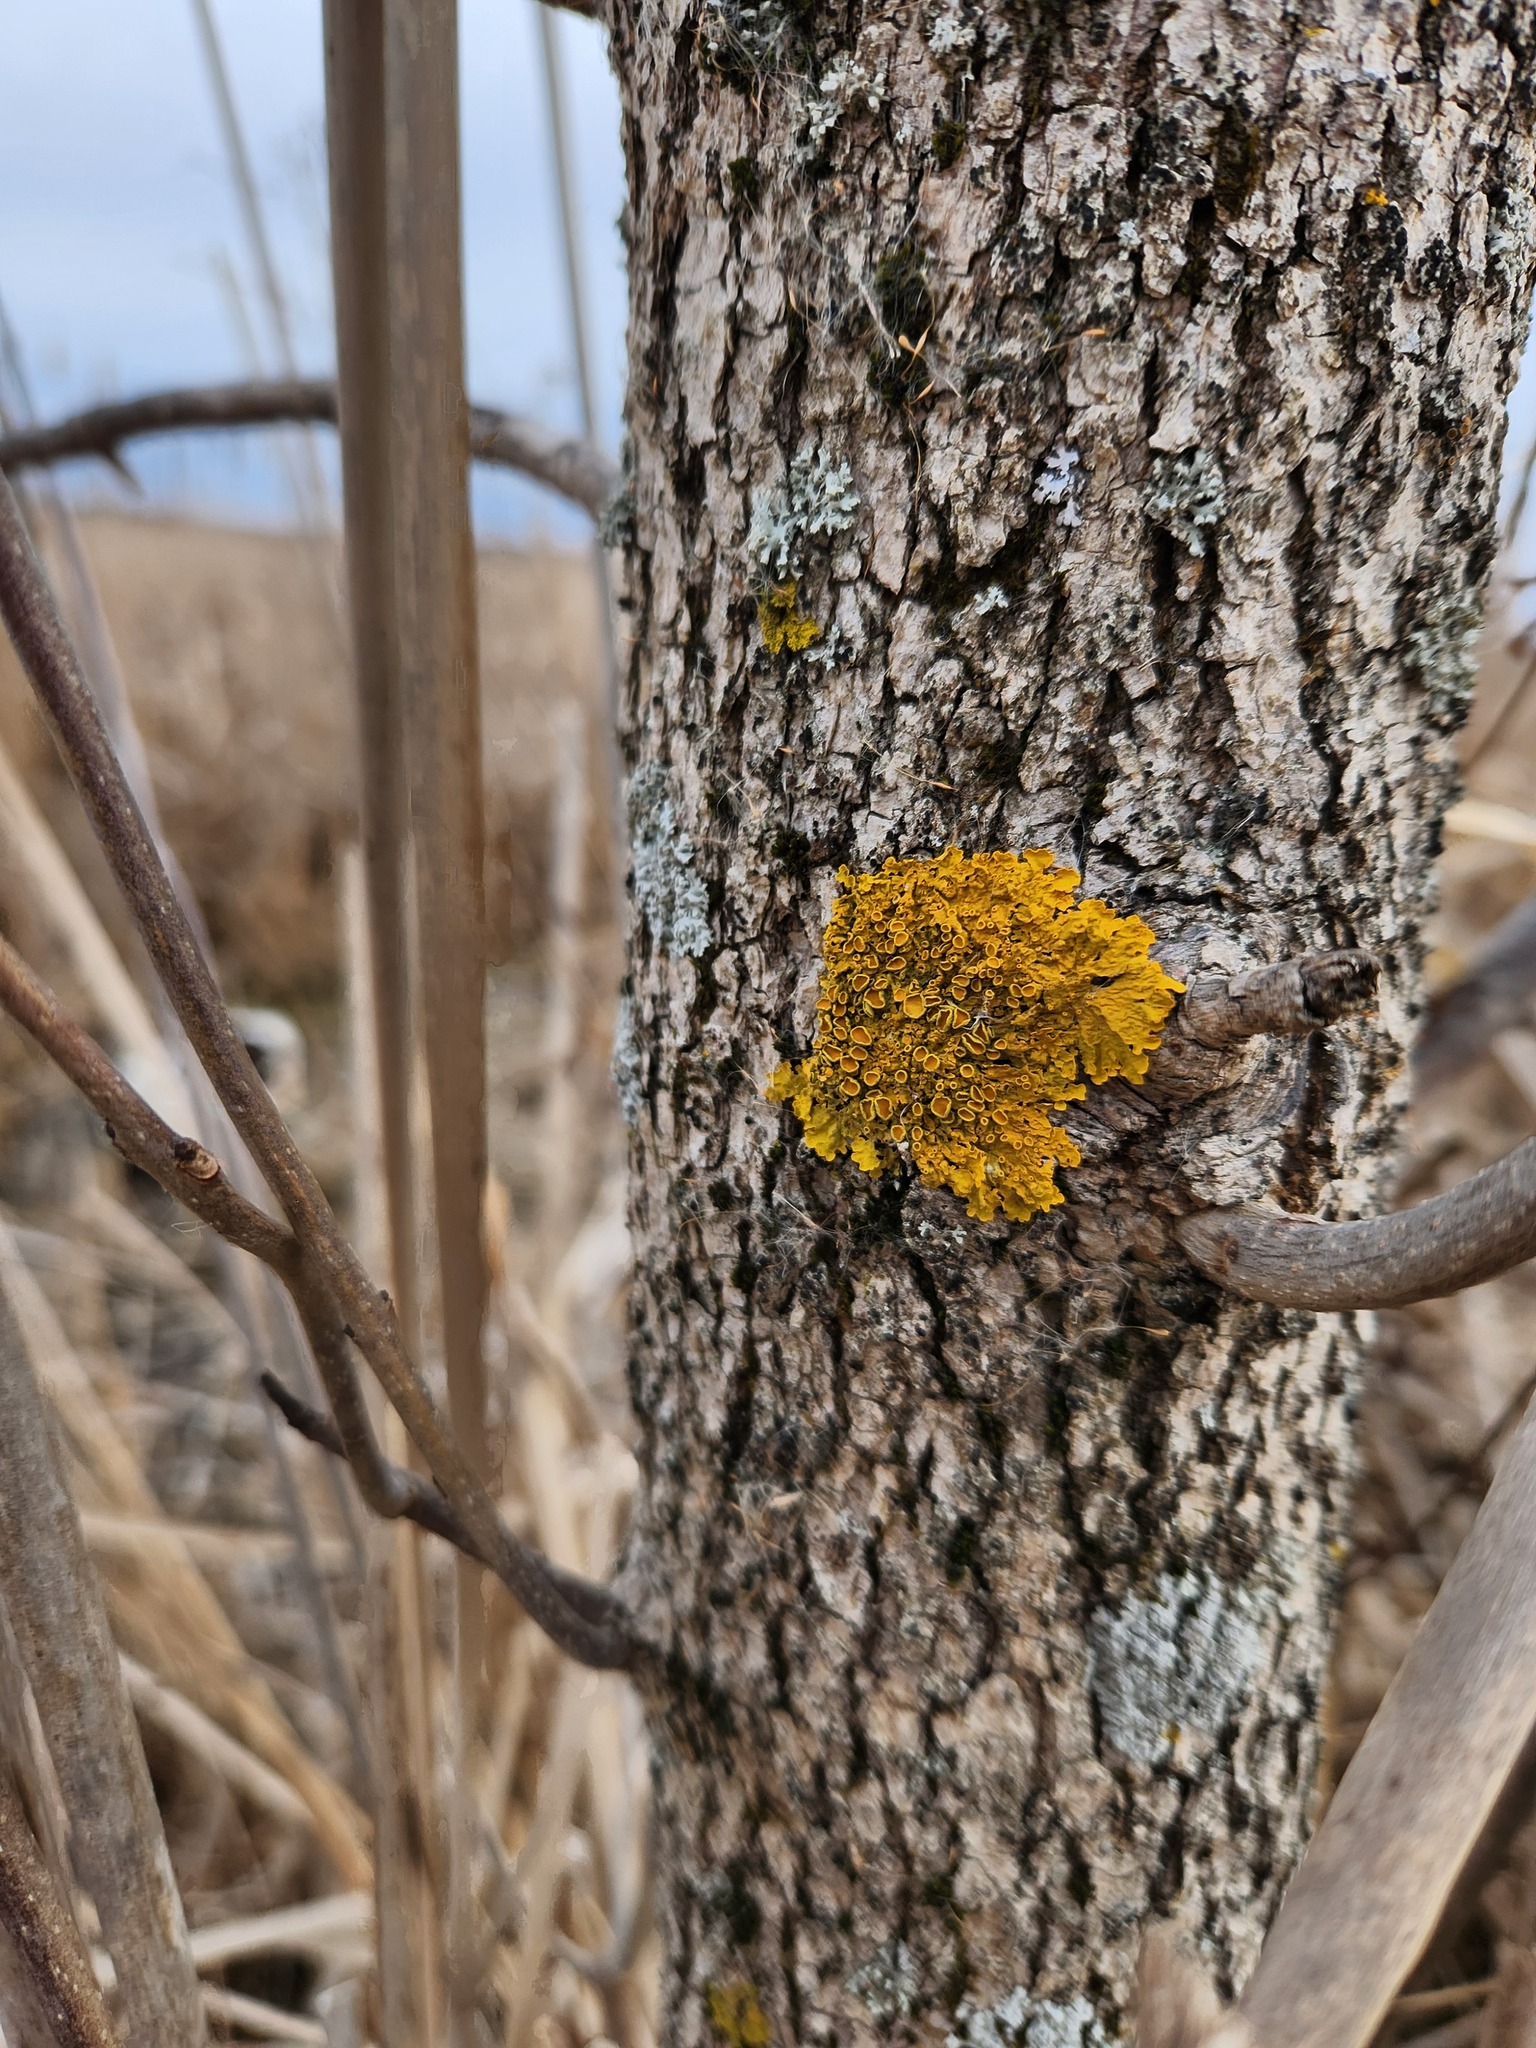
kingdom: Fungi
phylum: Ascomycota
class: Lecanoromycetes
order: Teloschistales
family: Teloschistaceae
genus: Xanthoria
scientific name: Xanthoria parietina
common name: Common orange lichen
